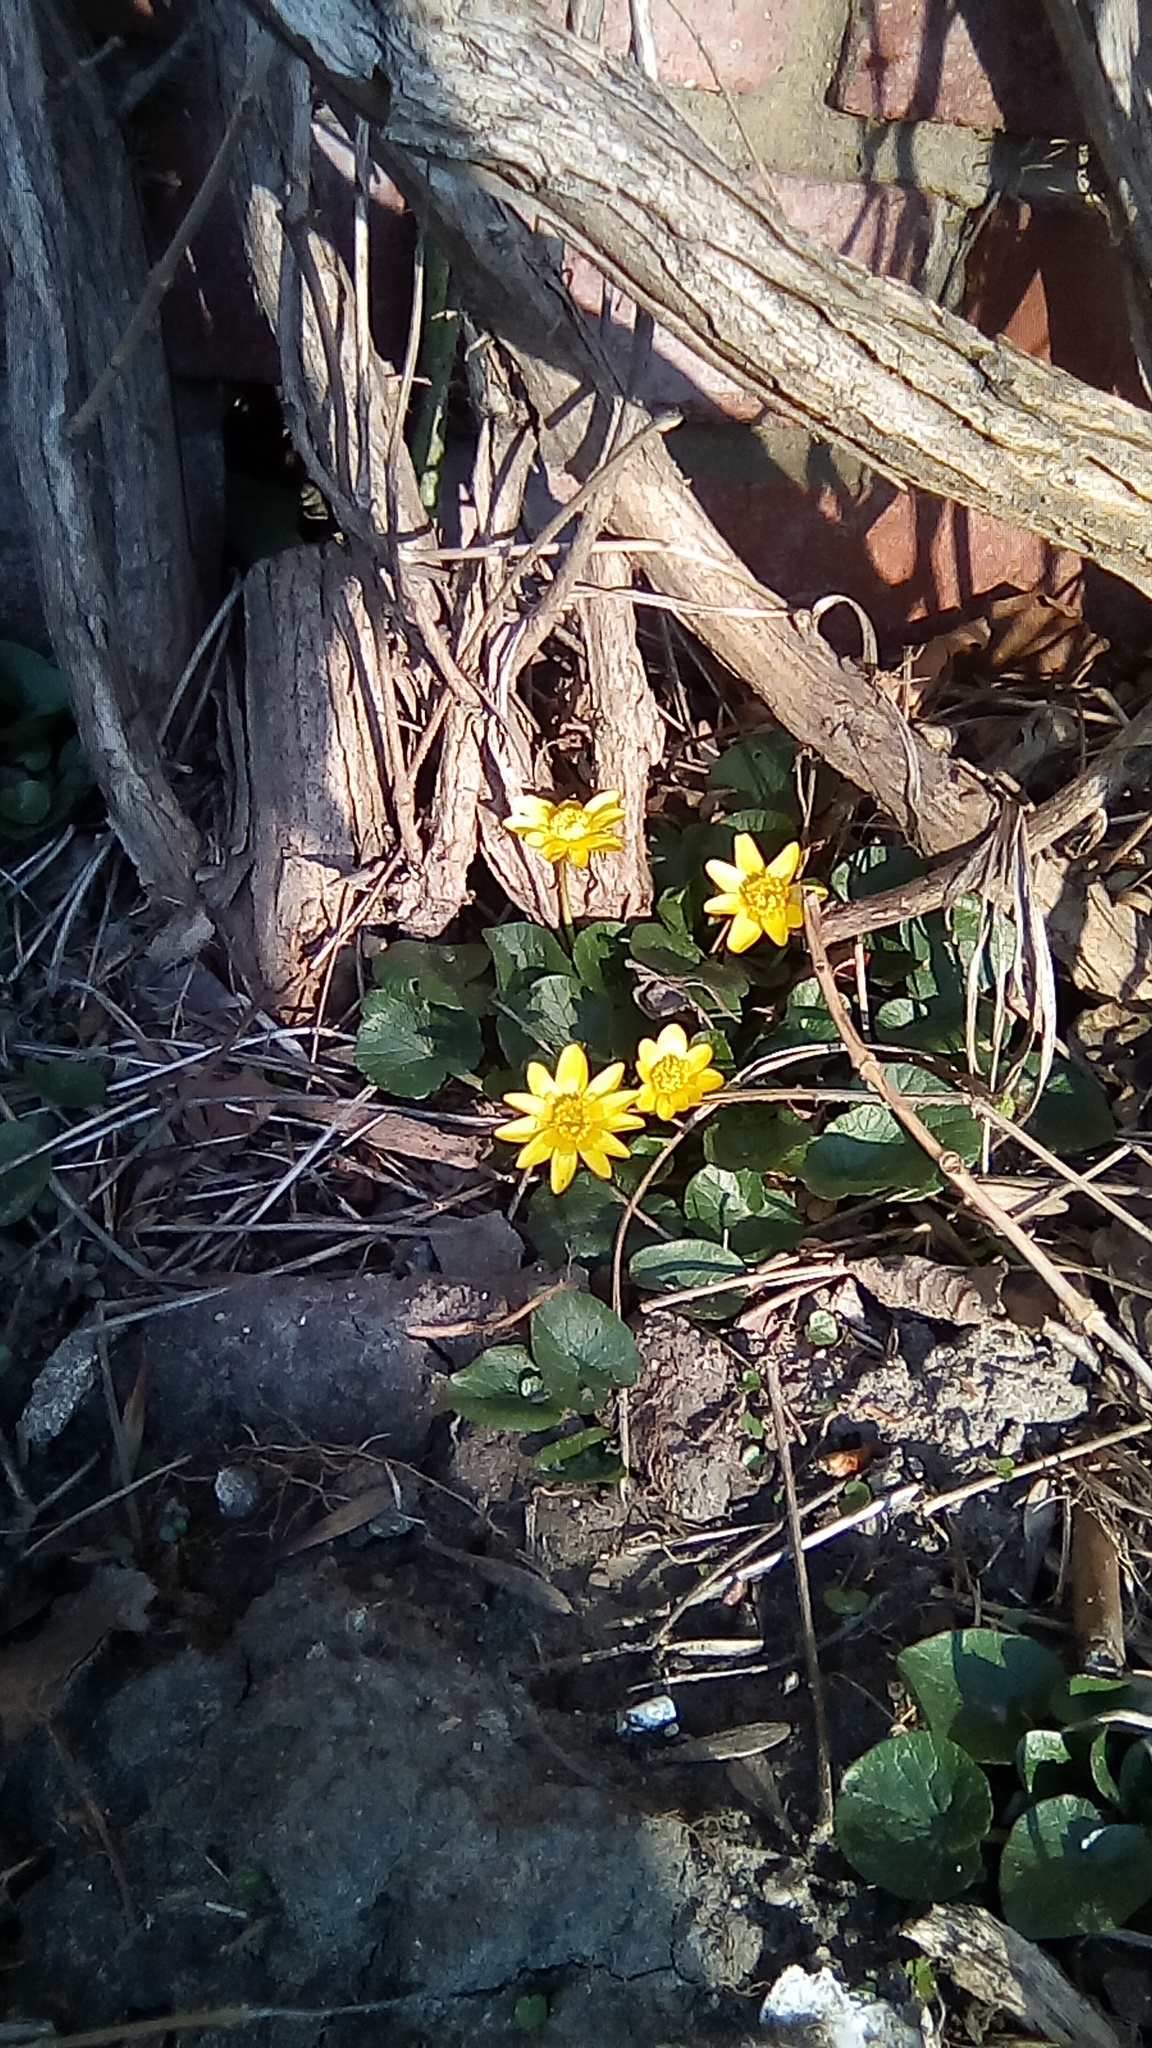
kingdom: Plantae
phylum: Tracheophyta
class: Magnoliopsida
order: Ranunculales
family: Ranunculaceae
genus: Ficaria
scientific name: Ficaria verna
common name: Lesser celandine
